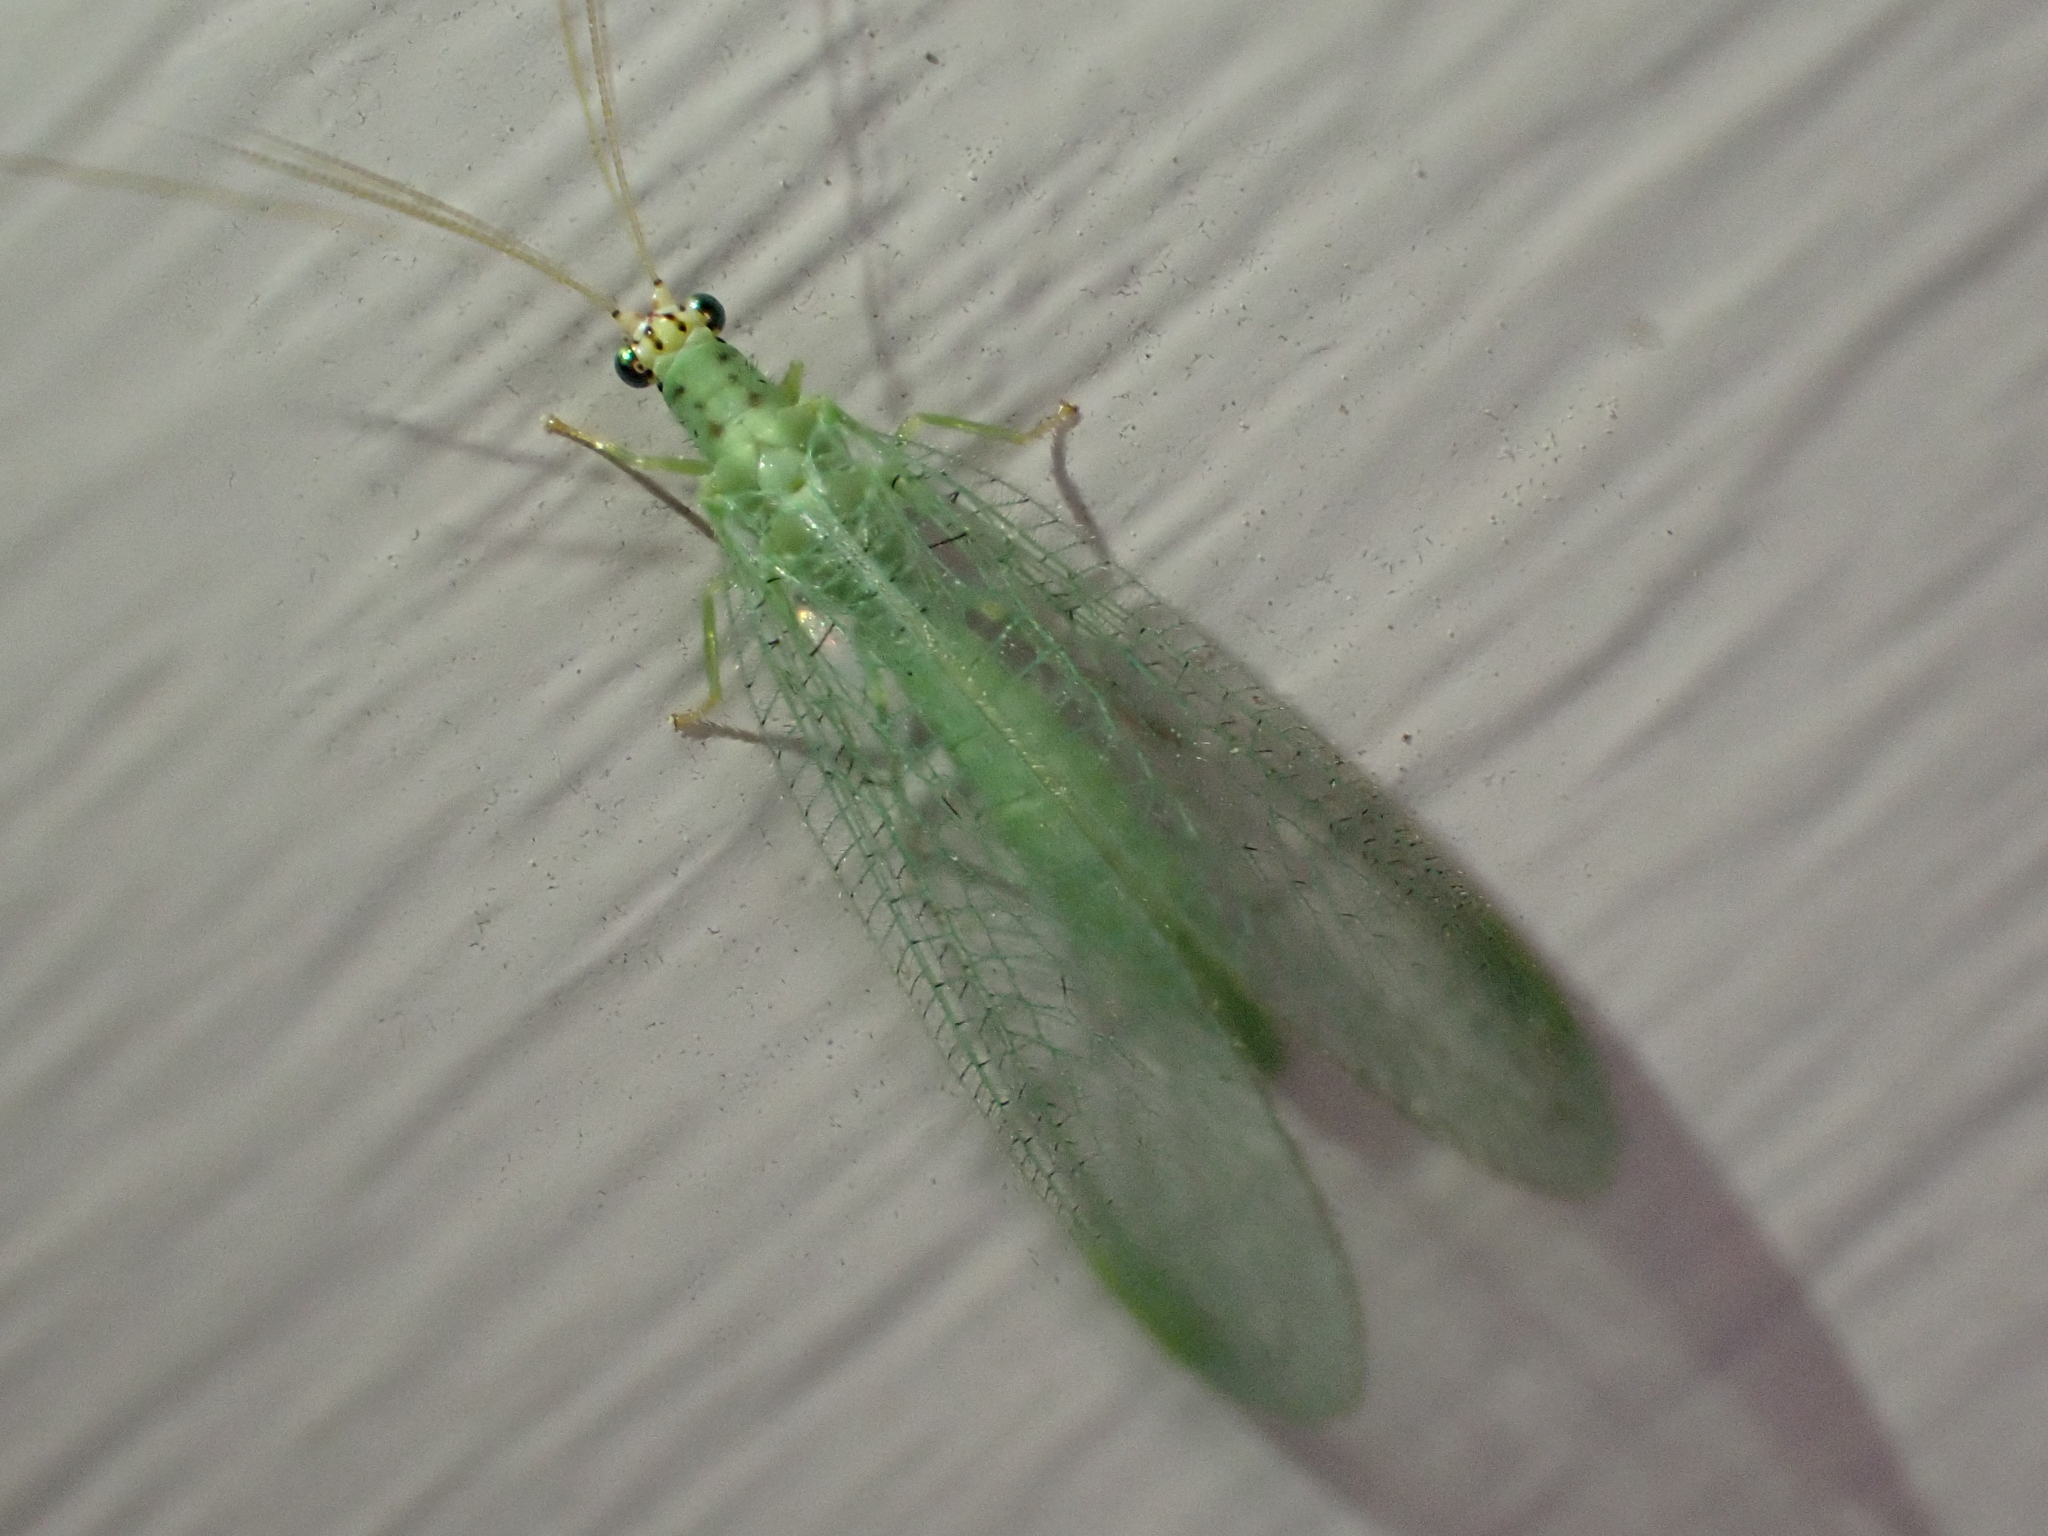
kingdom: Animalia
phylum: Arthropoda
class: Insecta
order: Neuroptera
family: Chrysopidae
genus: Chrysopa
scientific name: Chrysopa oculata
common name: Golden-eyed lacewing
